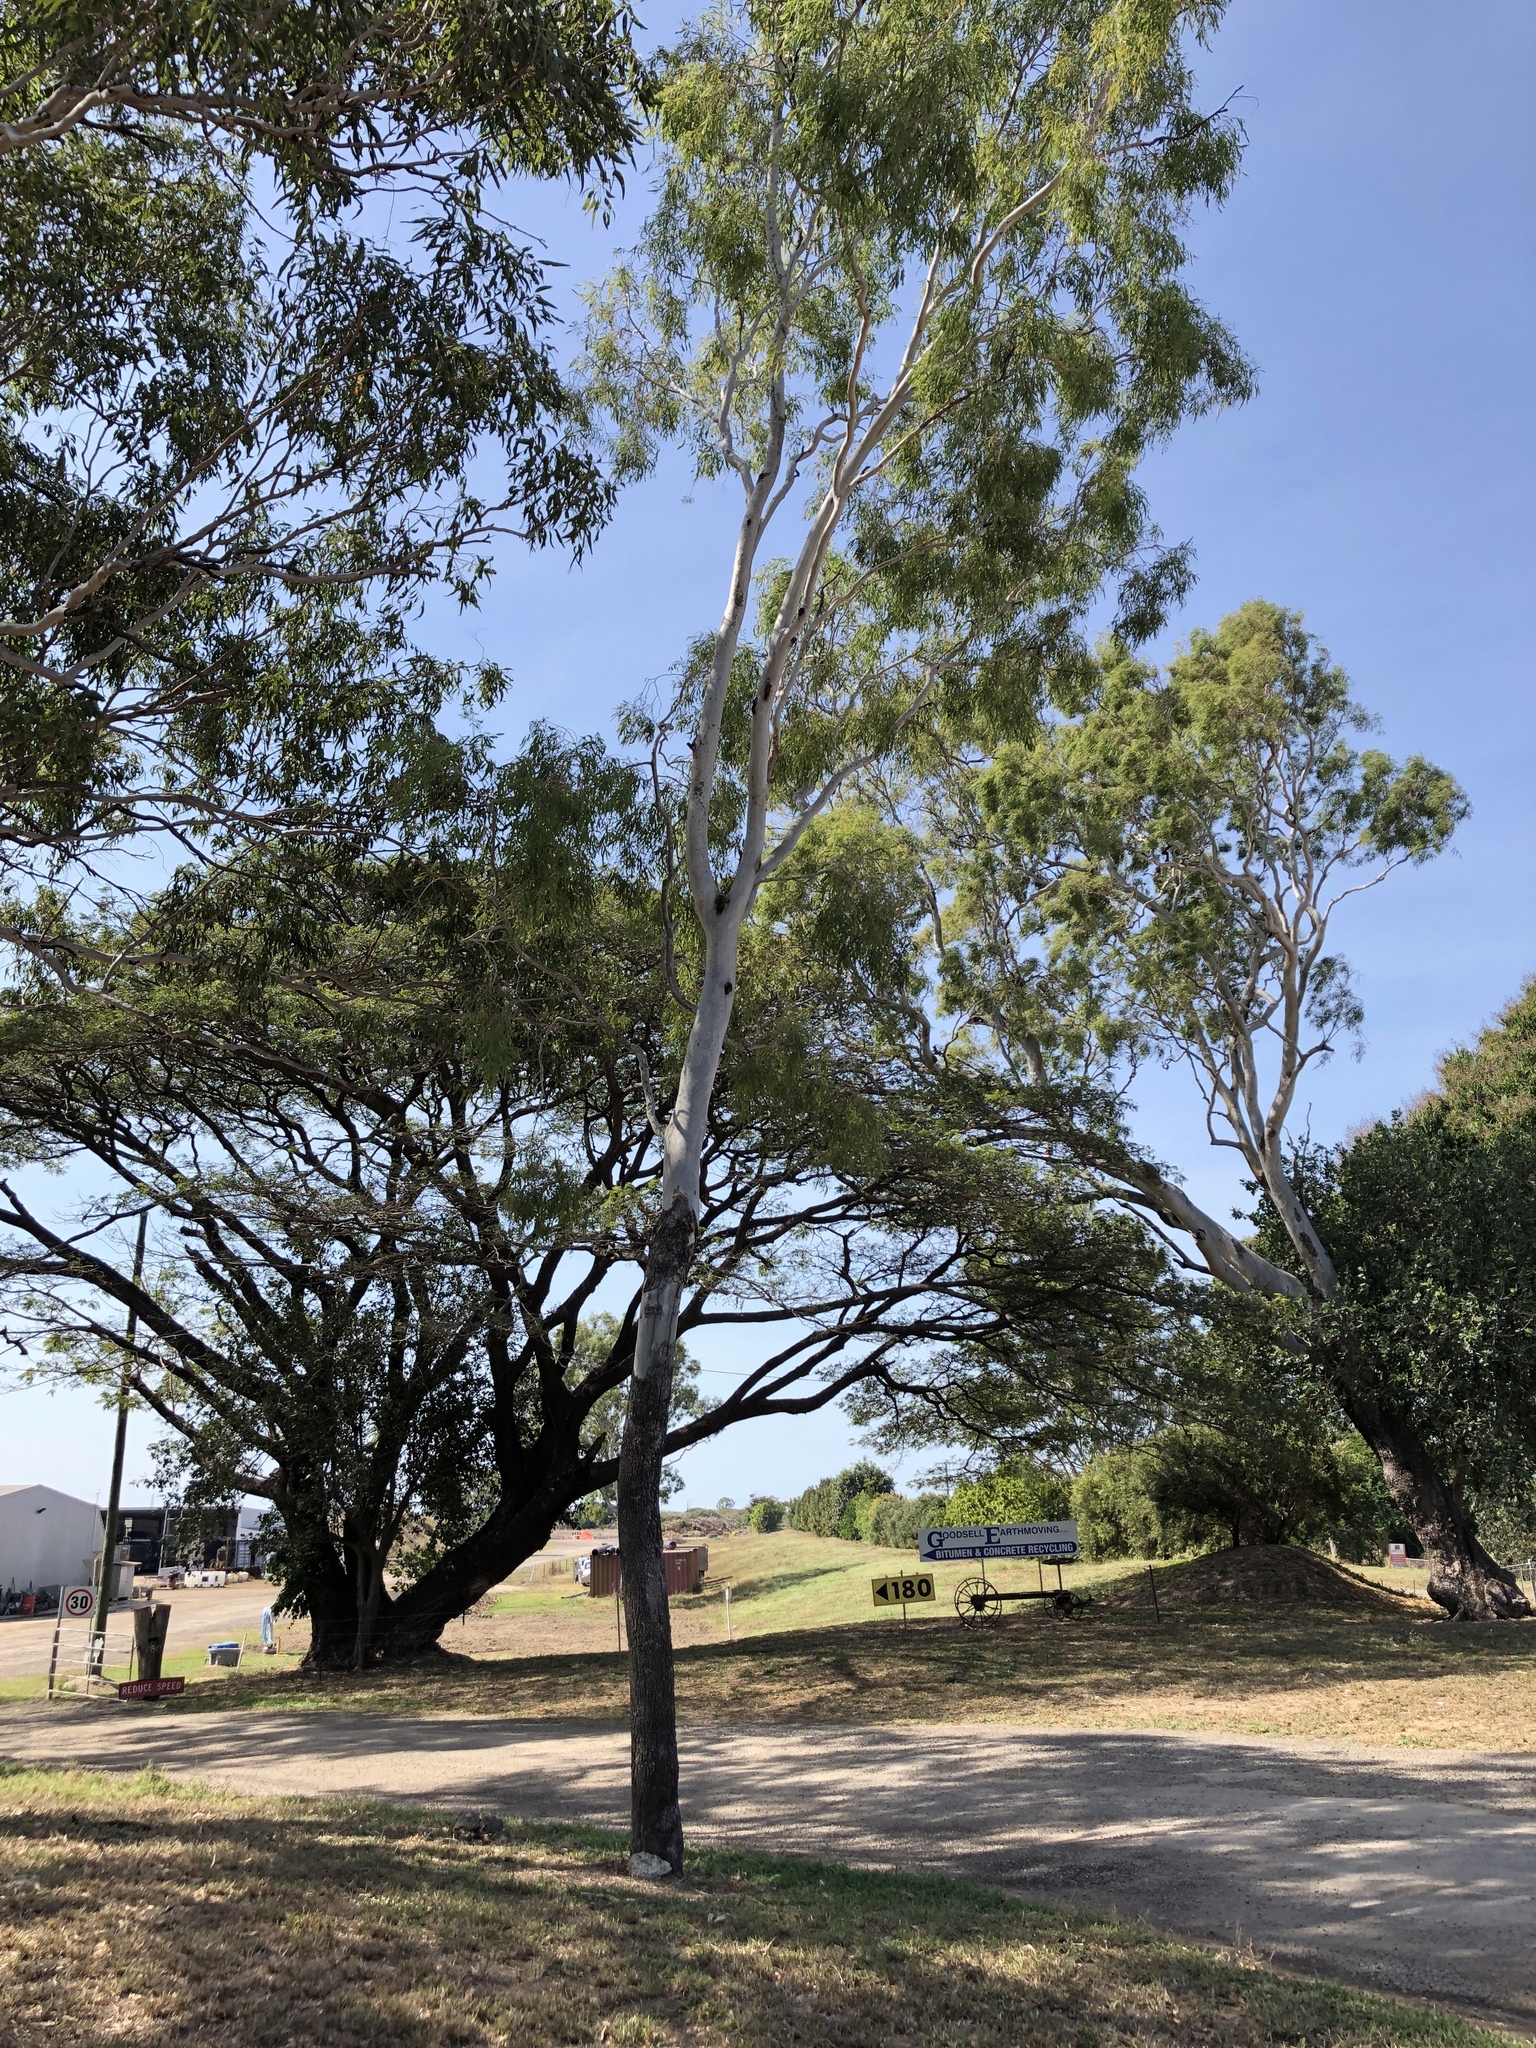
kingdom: Plantae
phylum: Tracheophyta
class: Magnoliopsida
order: Myrtales
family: Myrtaceae
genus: Corymbia
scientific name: Corymbia tessellaris
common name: Carbeen
